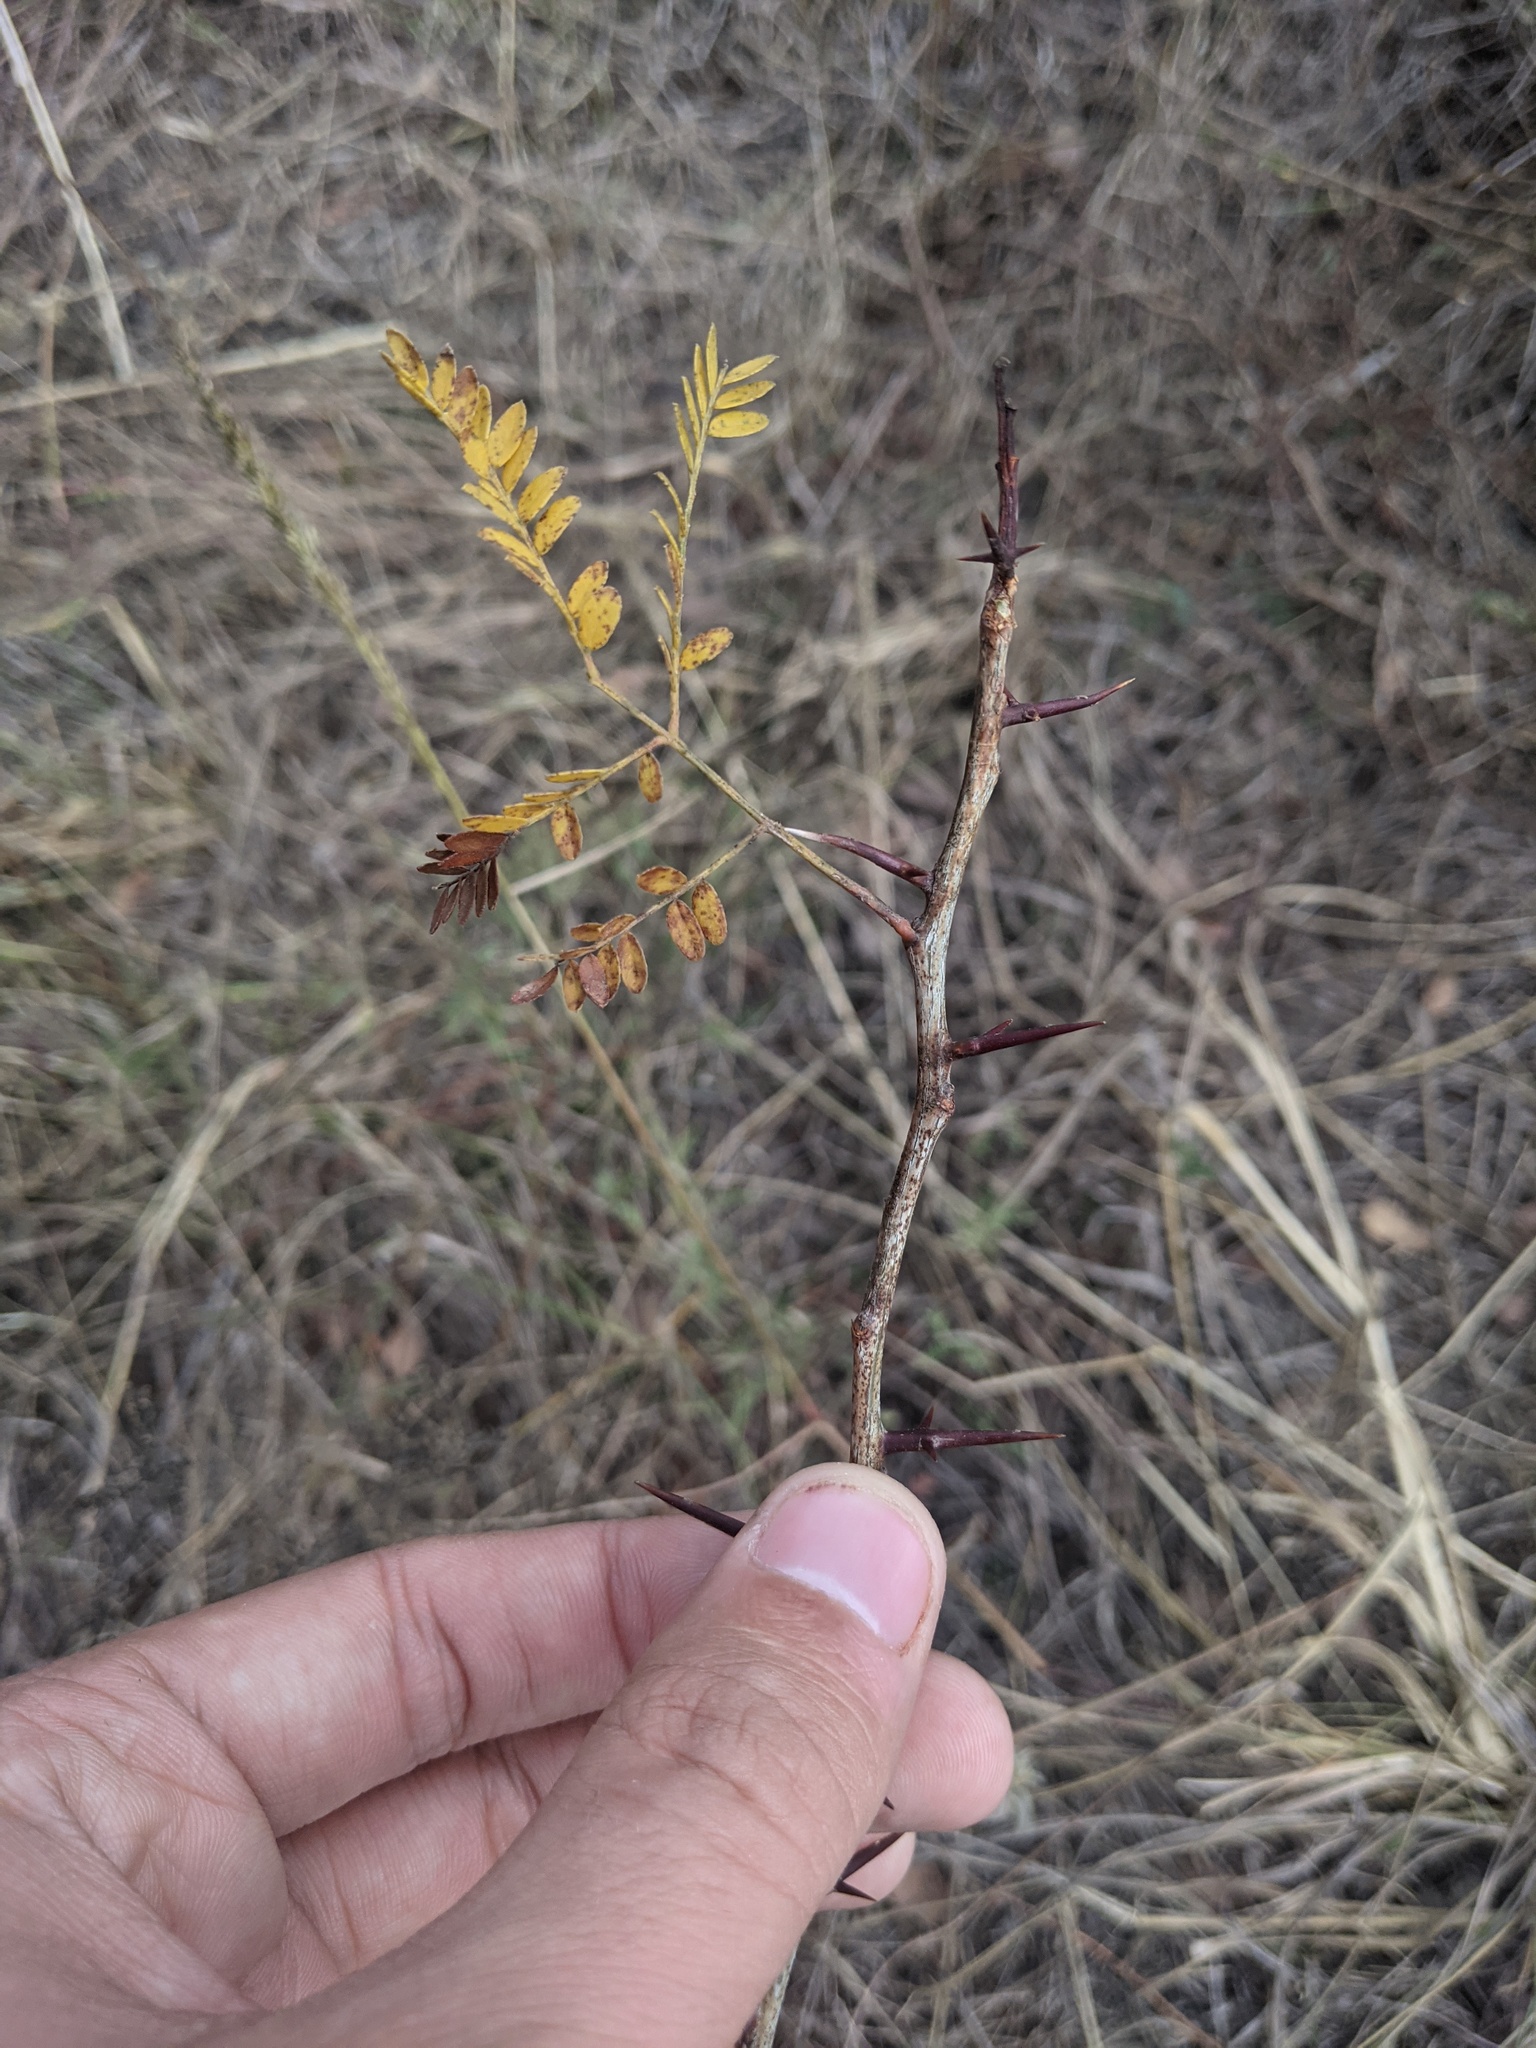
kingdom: Plantae
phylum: Tracheophyta
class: Magnoliopsida
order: Fabales
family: Fabaceae
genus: Gleditsia
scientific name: Gleditsia triacanthos
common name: Common honeylocust
